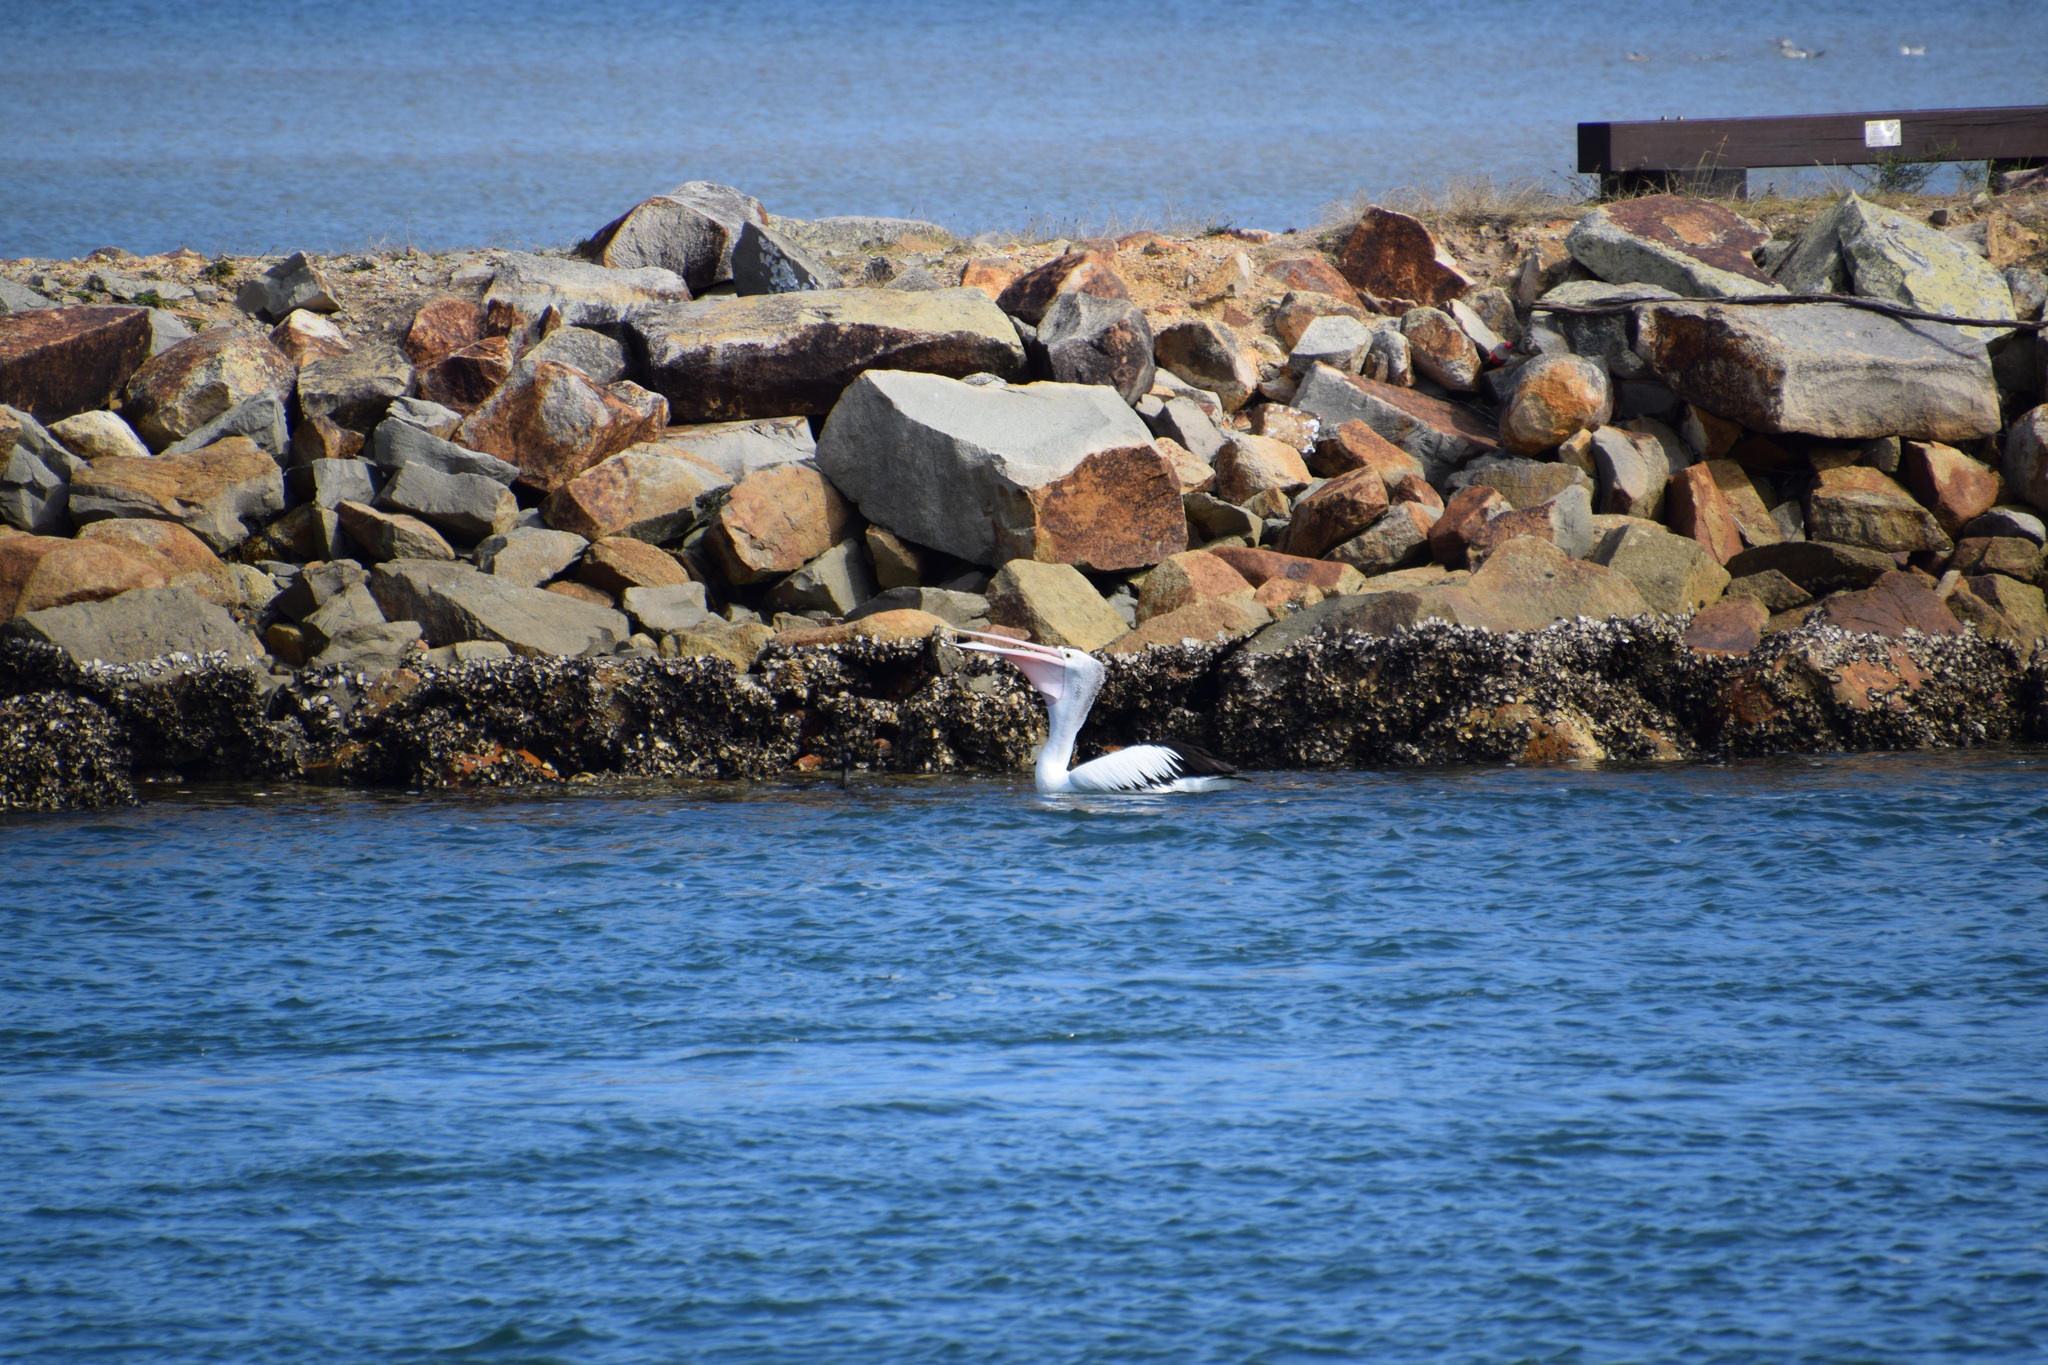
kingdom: Animalia
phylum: Chordata
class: Aves
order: Pelecaniformes
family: Pelecanidae
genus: Pelecanus
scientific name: Pelecanus conspicillatus
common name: Australian pelican
